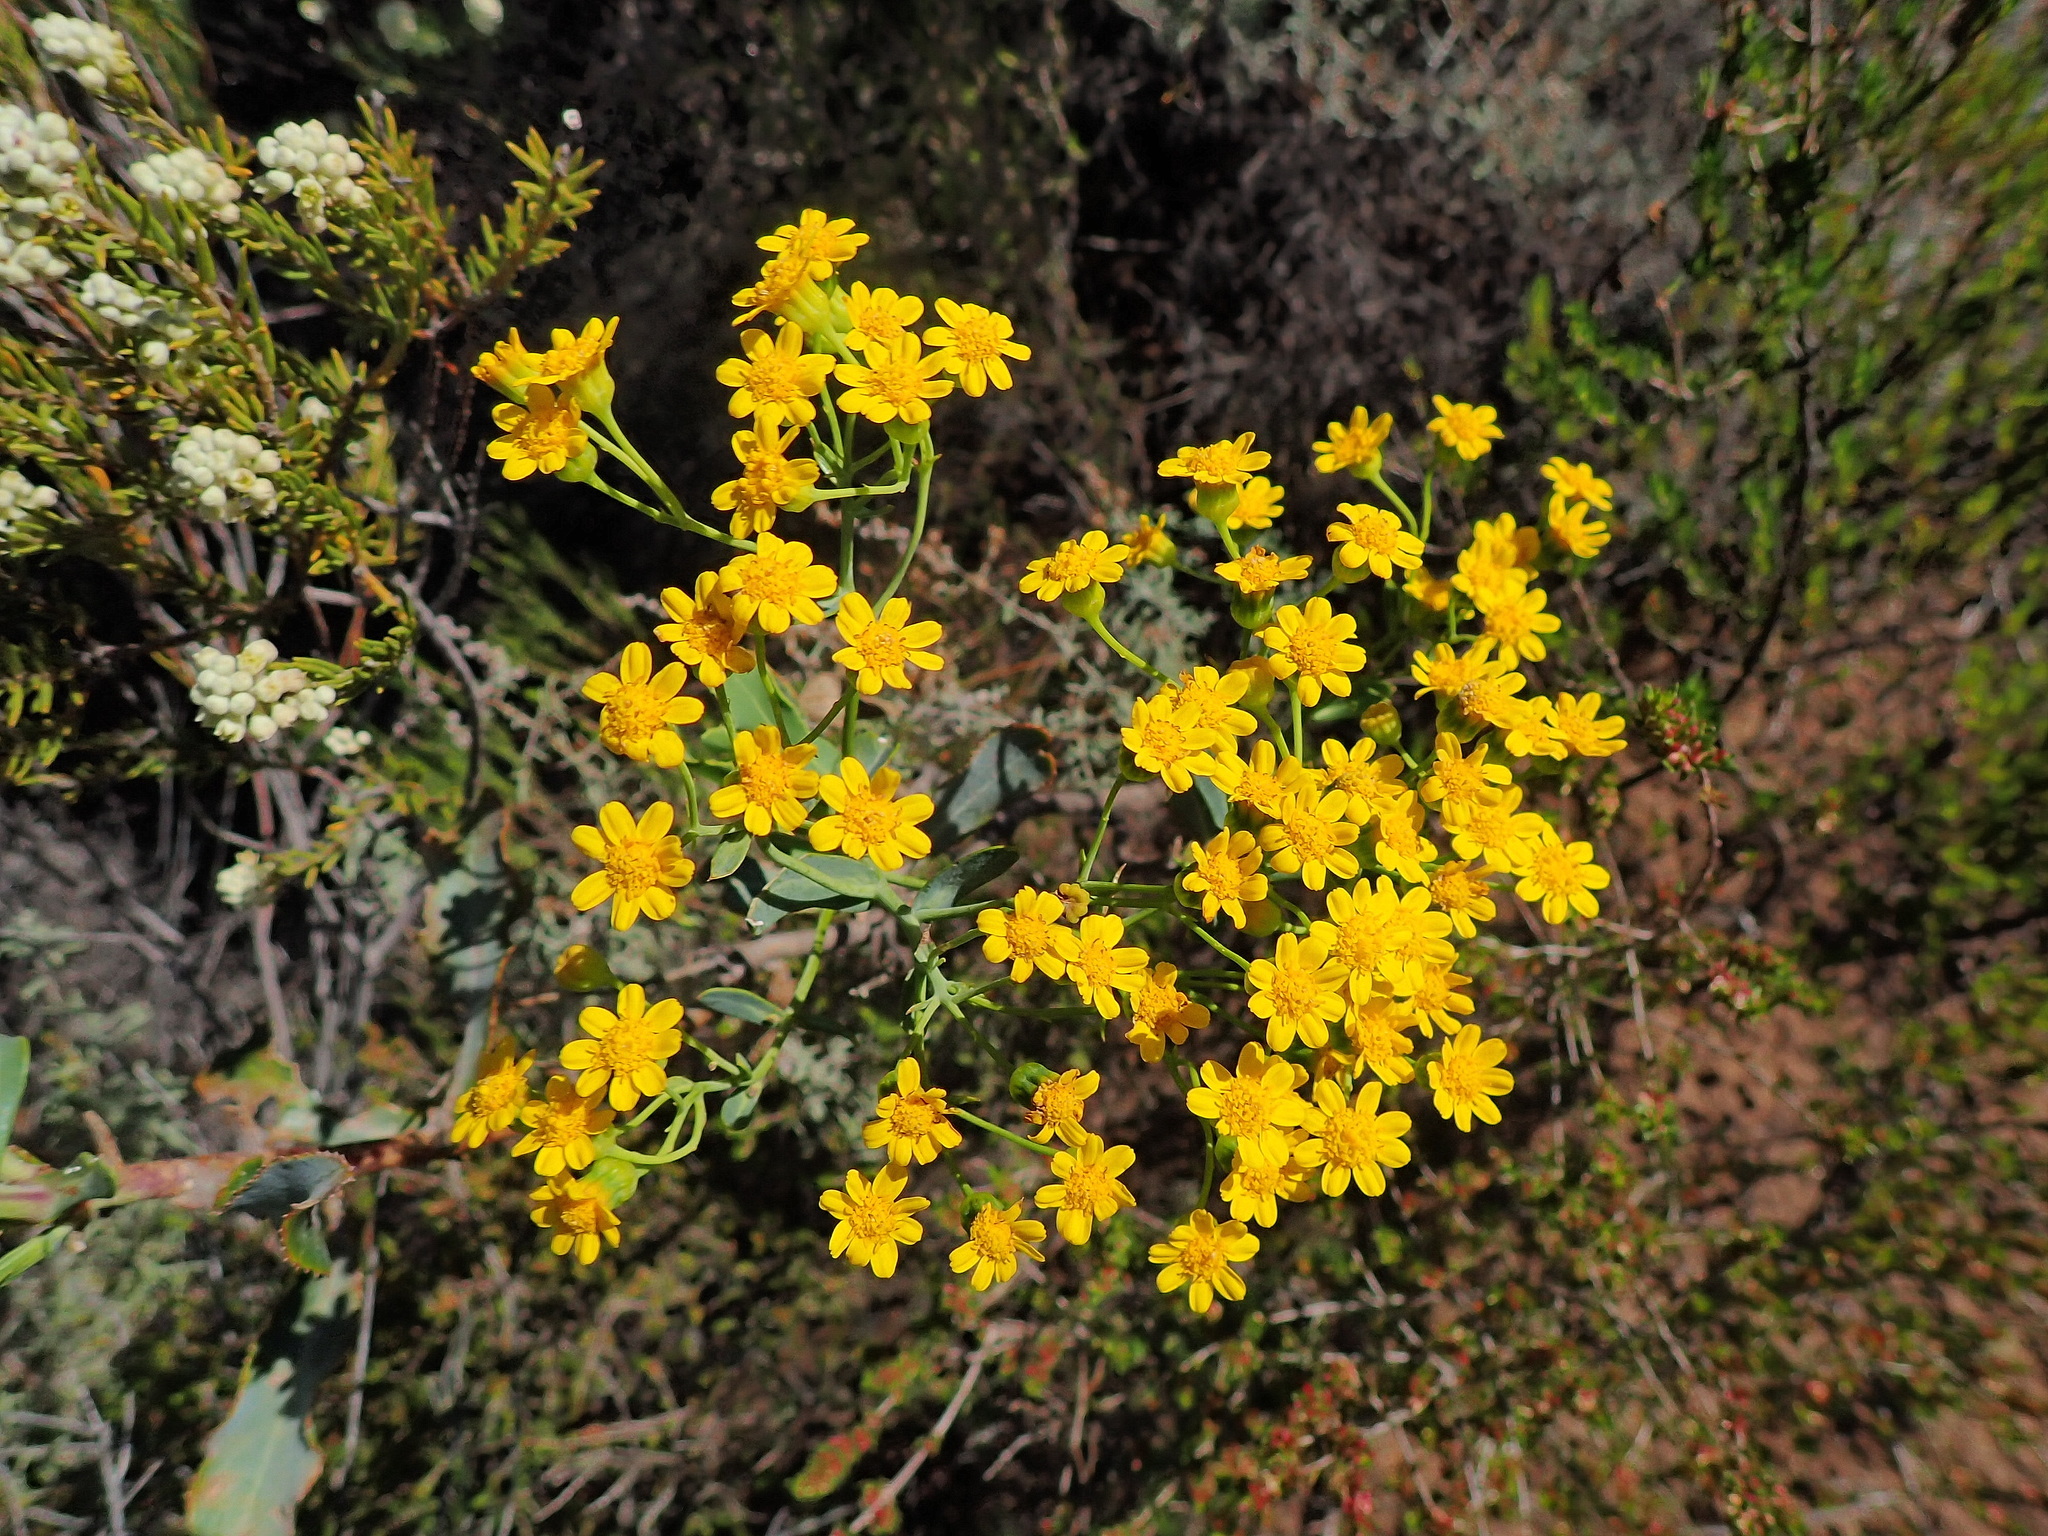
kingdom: Plantae
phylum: Tracheophyta
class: Magnoliopsida
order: Asterales
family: Asteraceae
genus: Othonna
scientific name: Othonna parviflora
